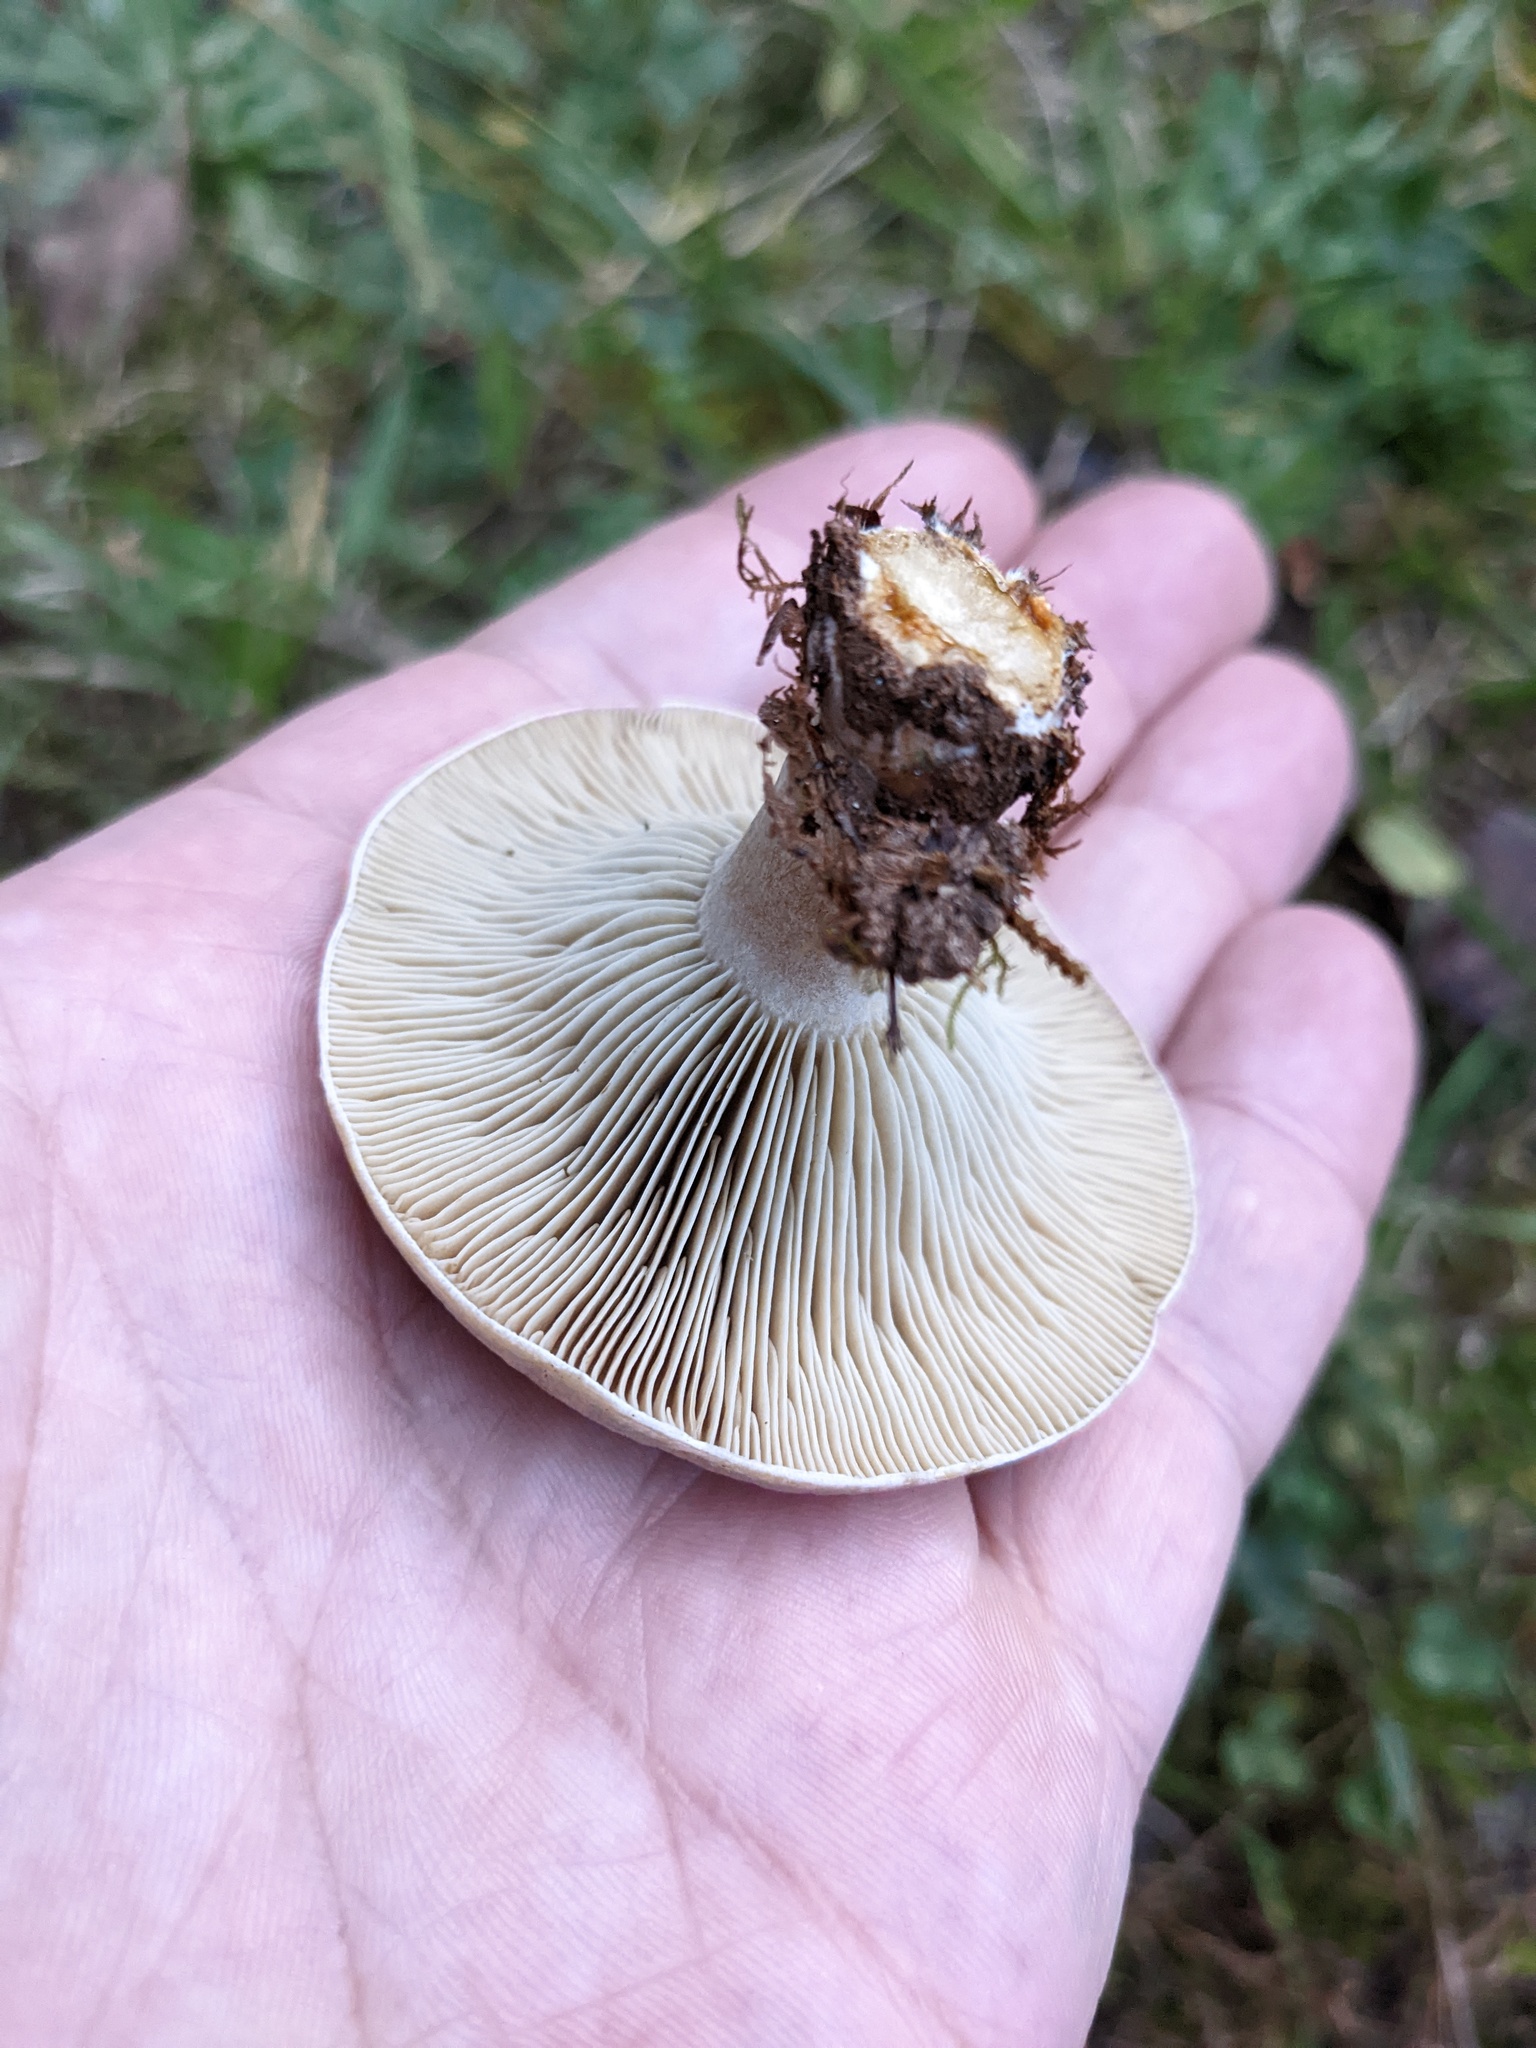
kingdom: Fungi
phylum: Basidiomycota
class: Agaricomycetes
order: Russulales
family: Russulaceae
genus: Lactarius
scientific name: Lactarius indigo
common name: Indigo milk cap
